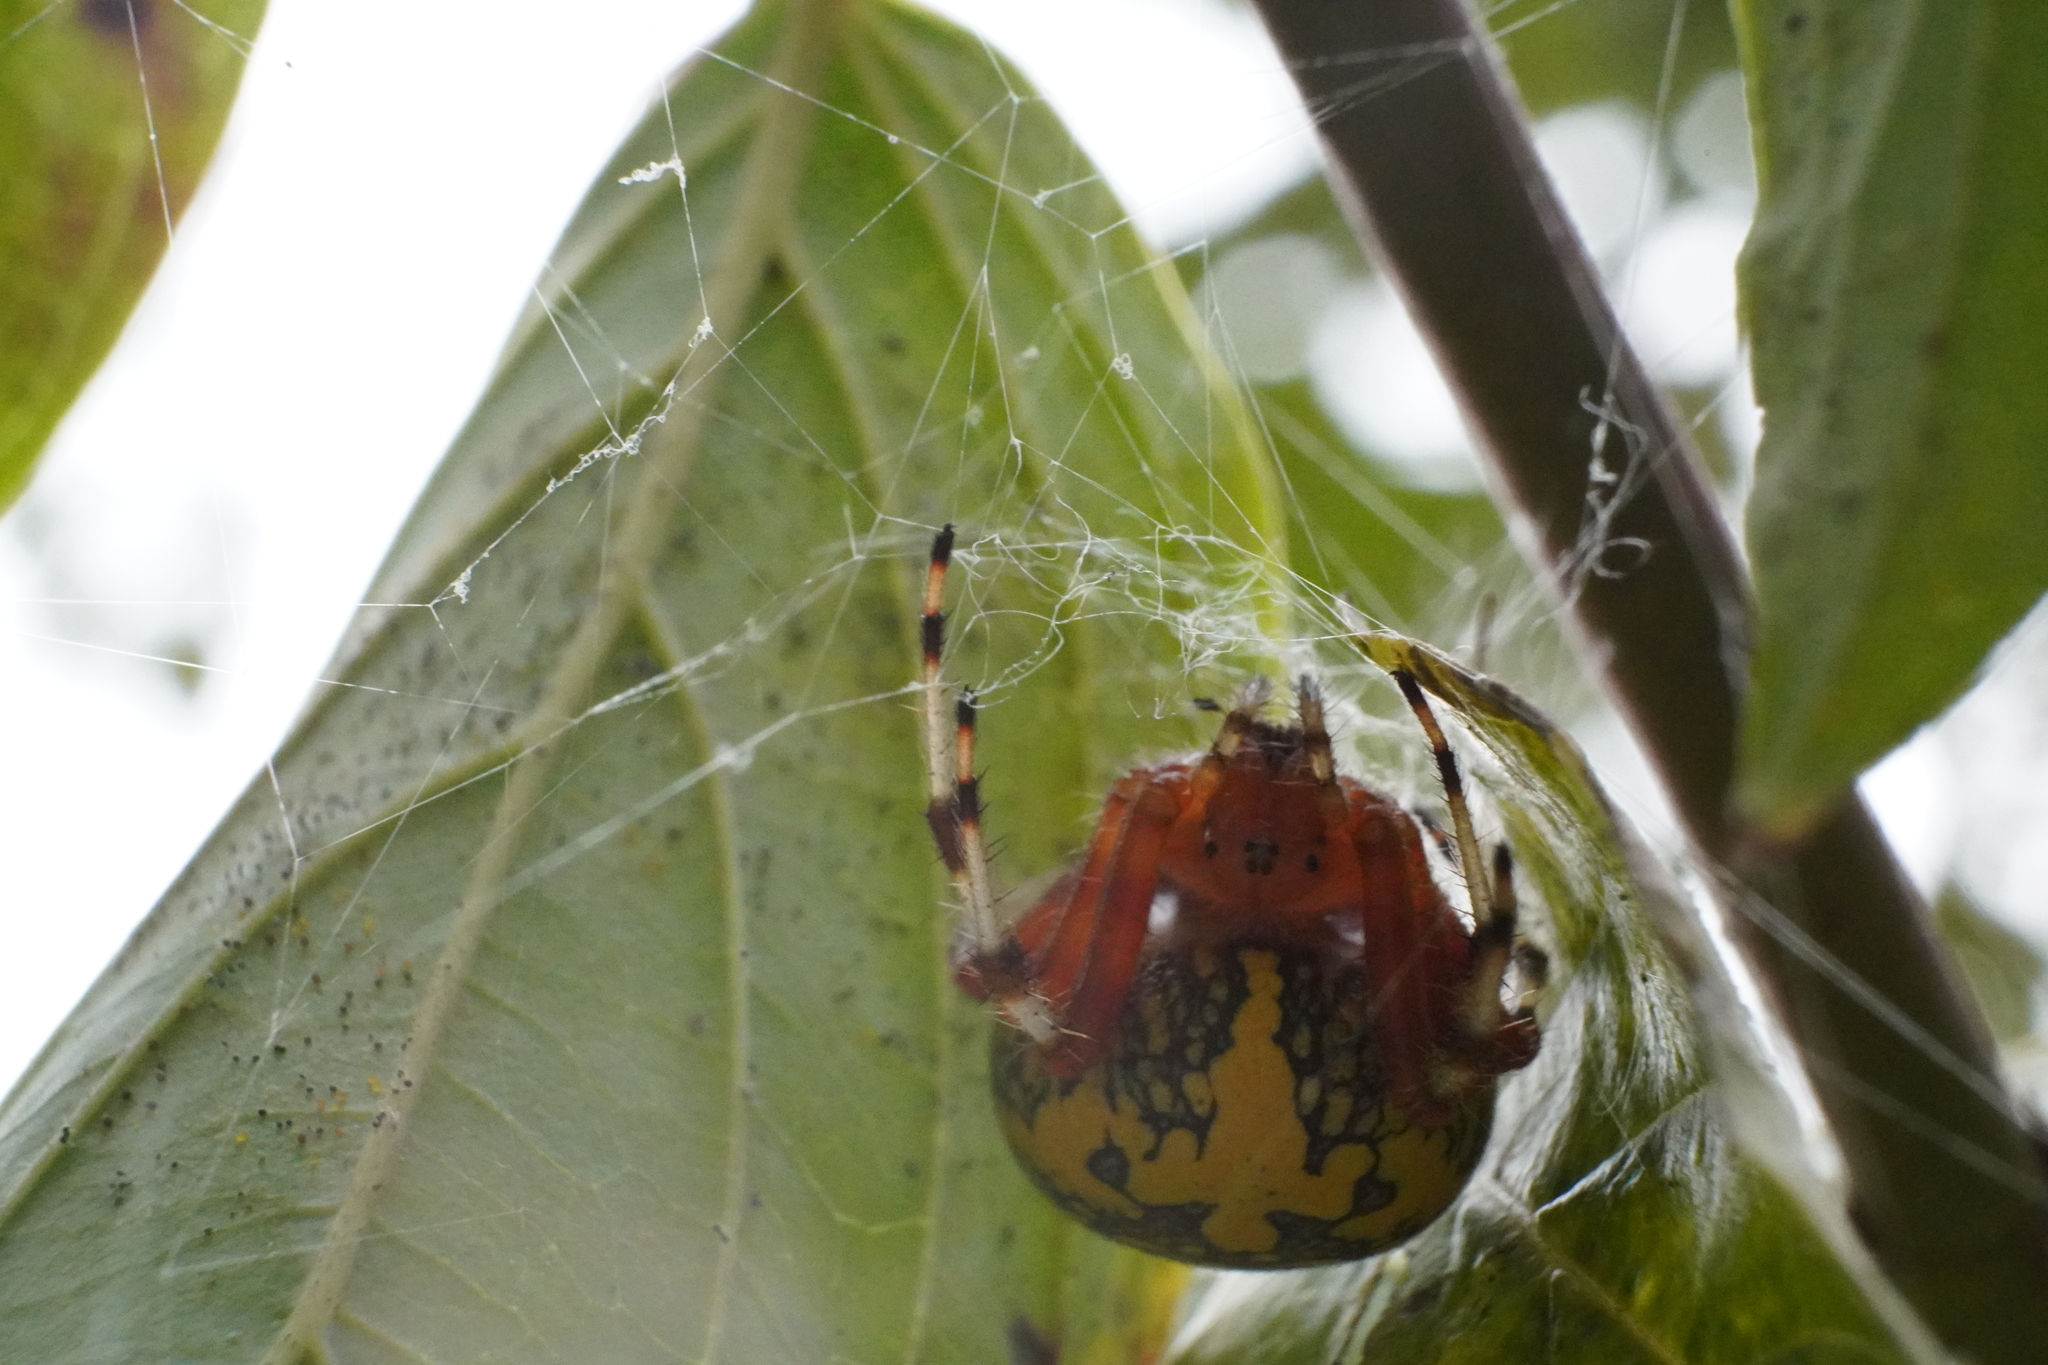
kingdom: Animalia
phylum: Arthropoda
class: Arachnida
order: Araneae
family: Araneidae
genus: Araneus
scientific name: Araneus marmoreus
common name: Marbled orbweaver
